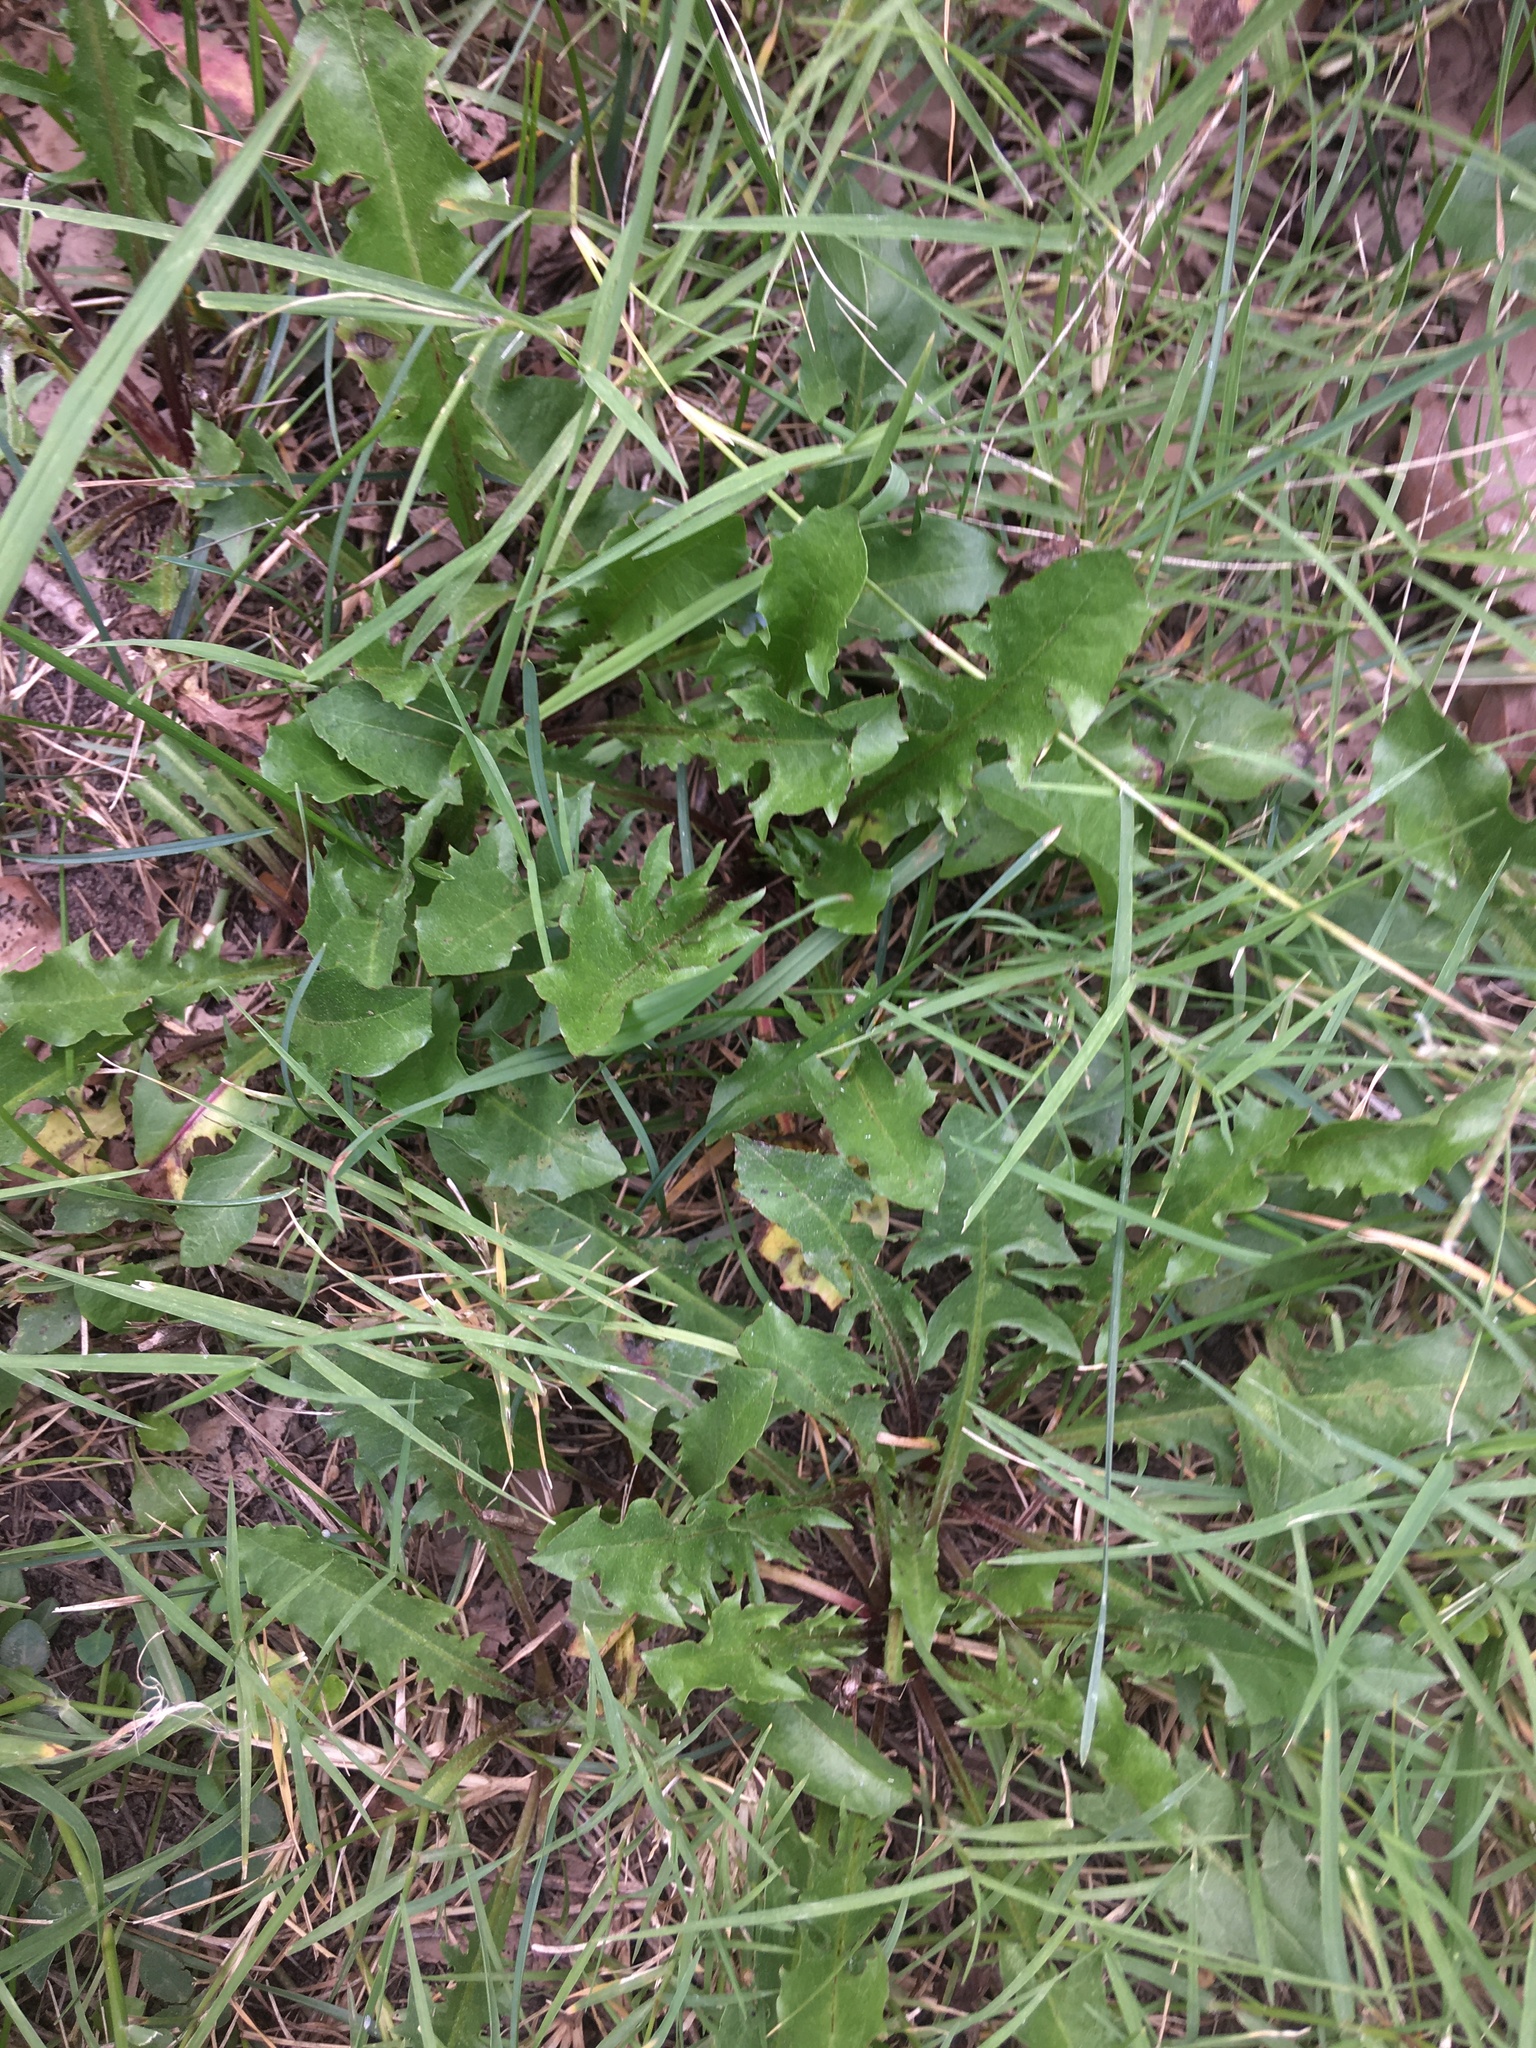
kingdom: Plantae
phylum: Tracheophyta
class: Magnoliopsida
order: Asterales
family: Asteraceae
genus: Taraxacum
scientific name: Taraxacum officinale
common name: Common dandelion
